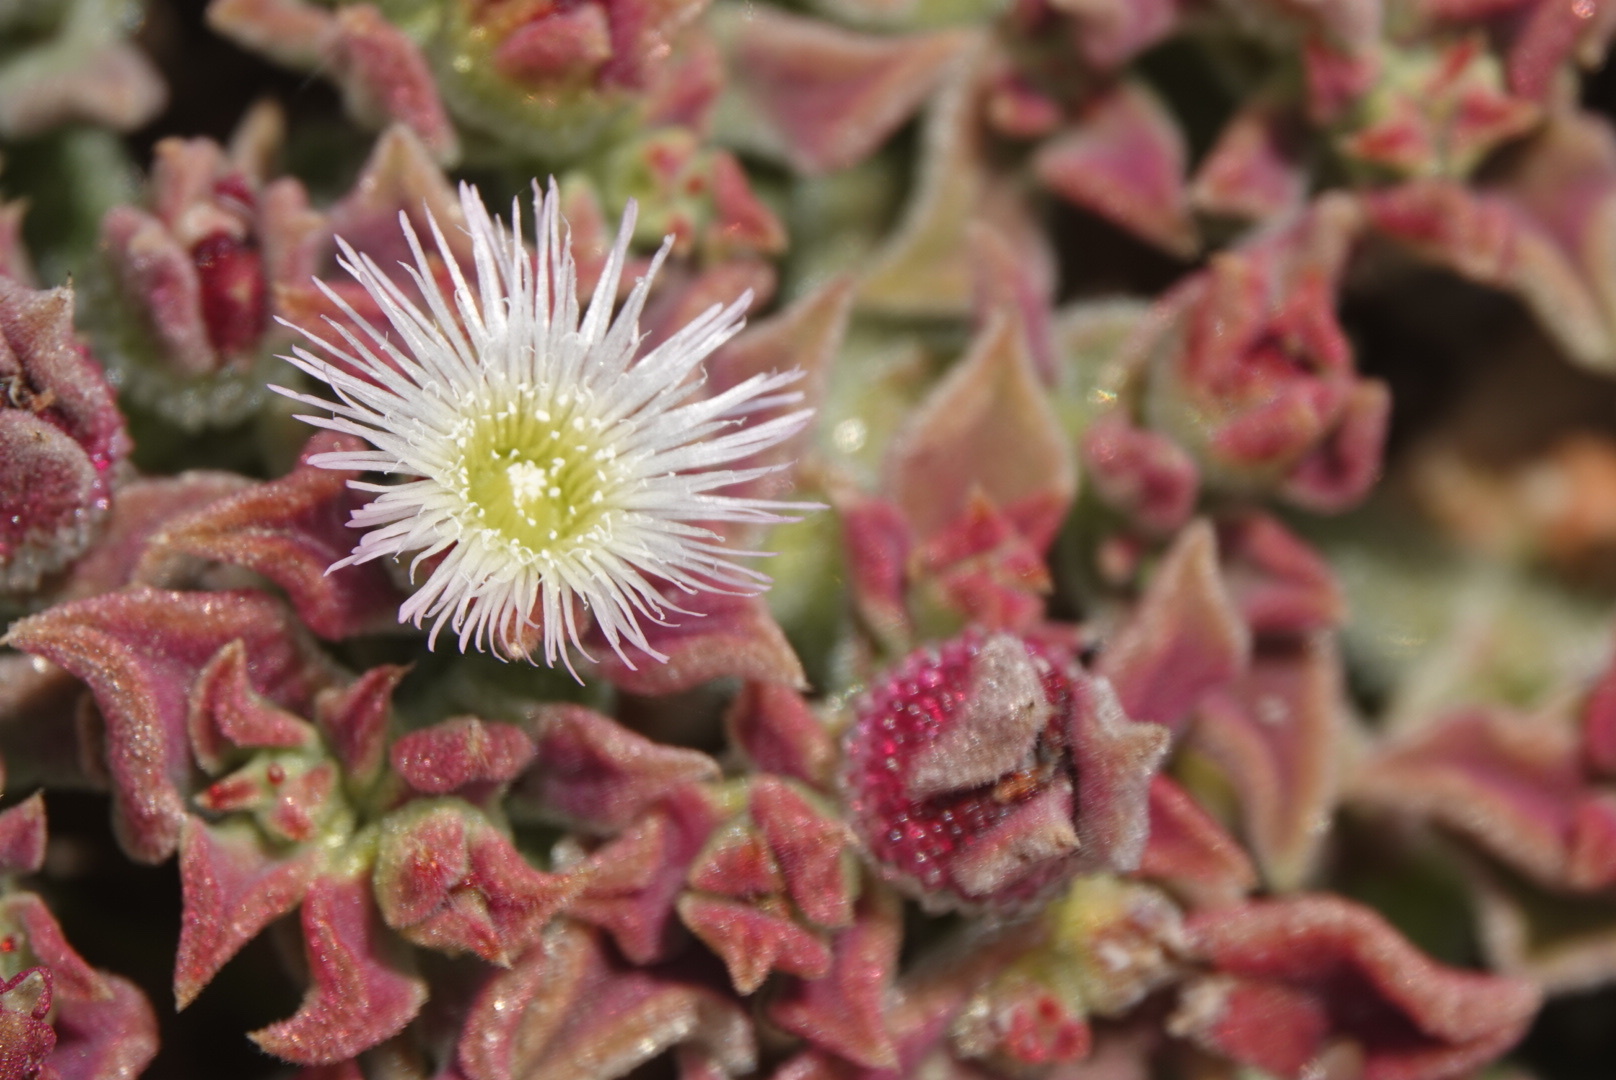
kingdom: Plantae
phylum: Tracheophyta
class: Magnoliopsida
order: Caryophyllales
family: Aizoaceae
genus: Mesembryanthemum
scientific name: Mesembryanthemum crystallinum
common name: Common iceplant
